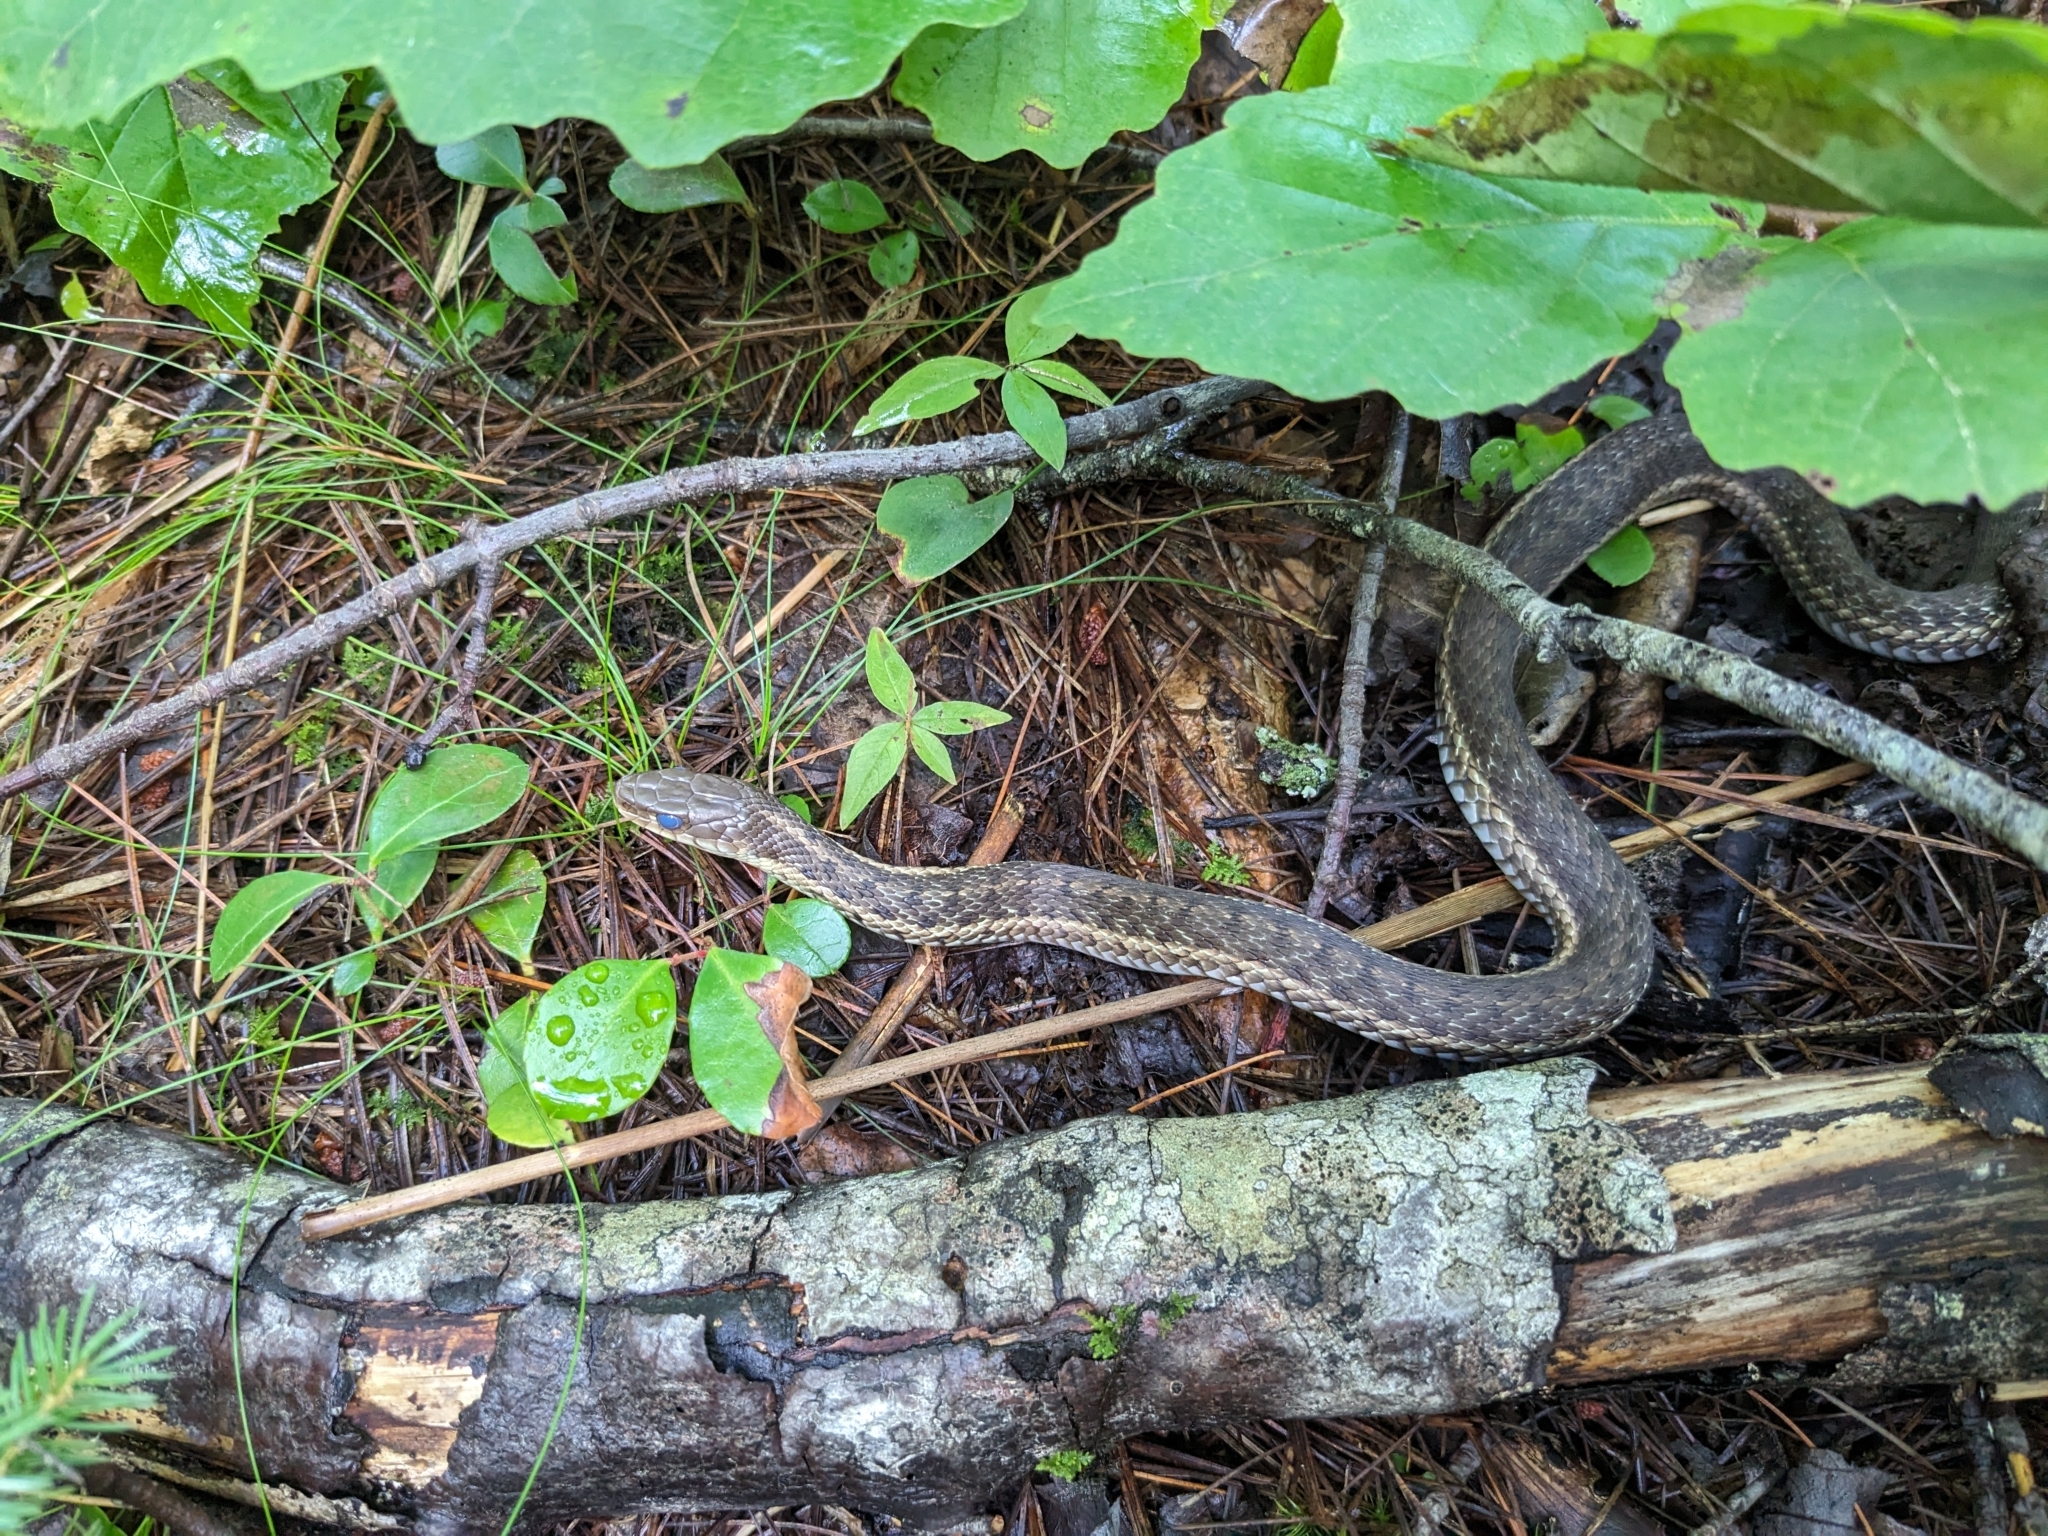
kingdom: Animalia
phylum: Chordata
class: Squamata
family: Colubridae
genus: Thamnophis
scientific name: Thamnophis sirtalis
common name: Common garter snake
